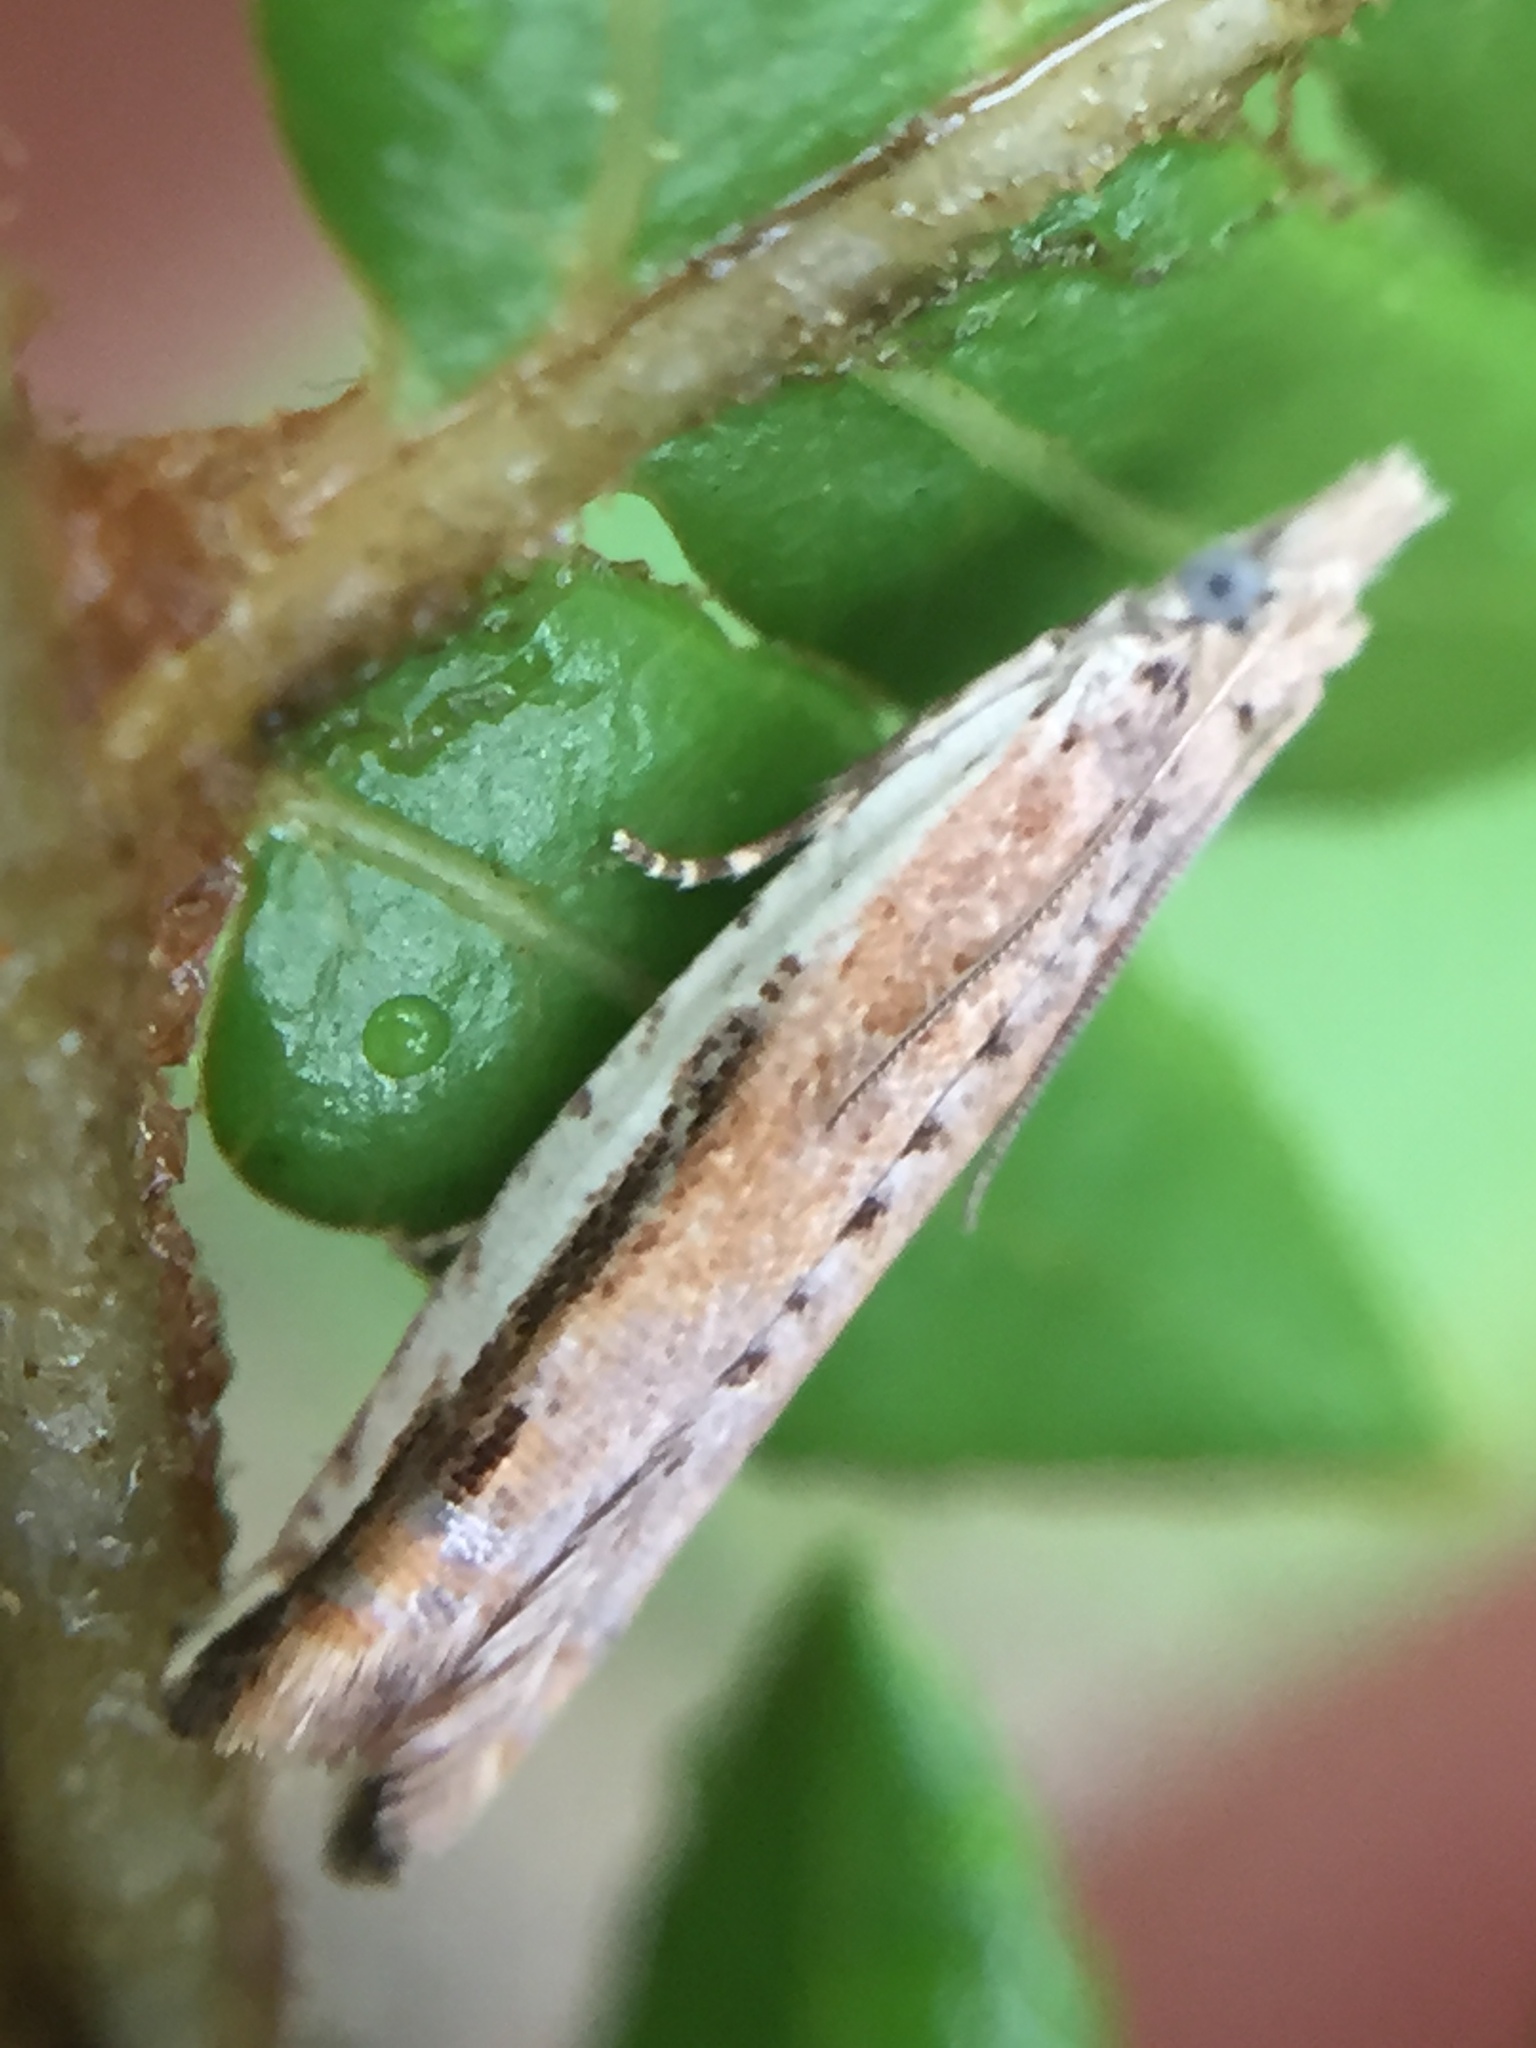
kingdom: Animalia
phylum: Arthropoda
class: Insecta
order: Lepidoptera
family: Tortricidae
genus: Holocola
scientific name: Holocola
